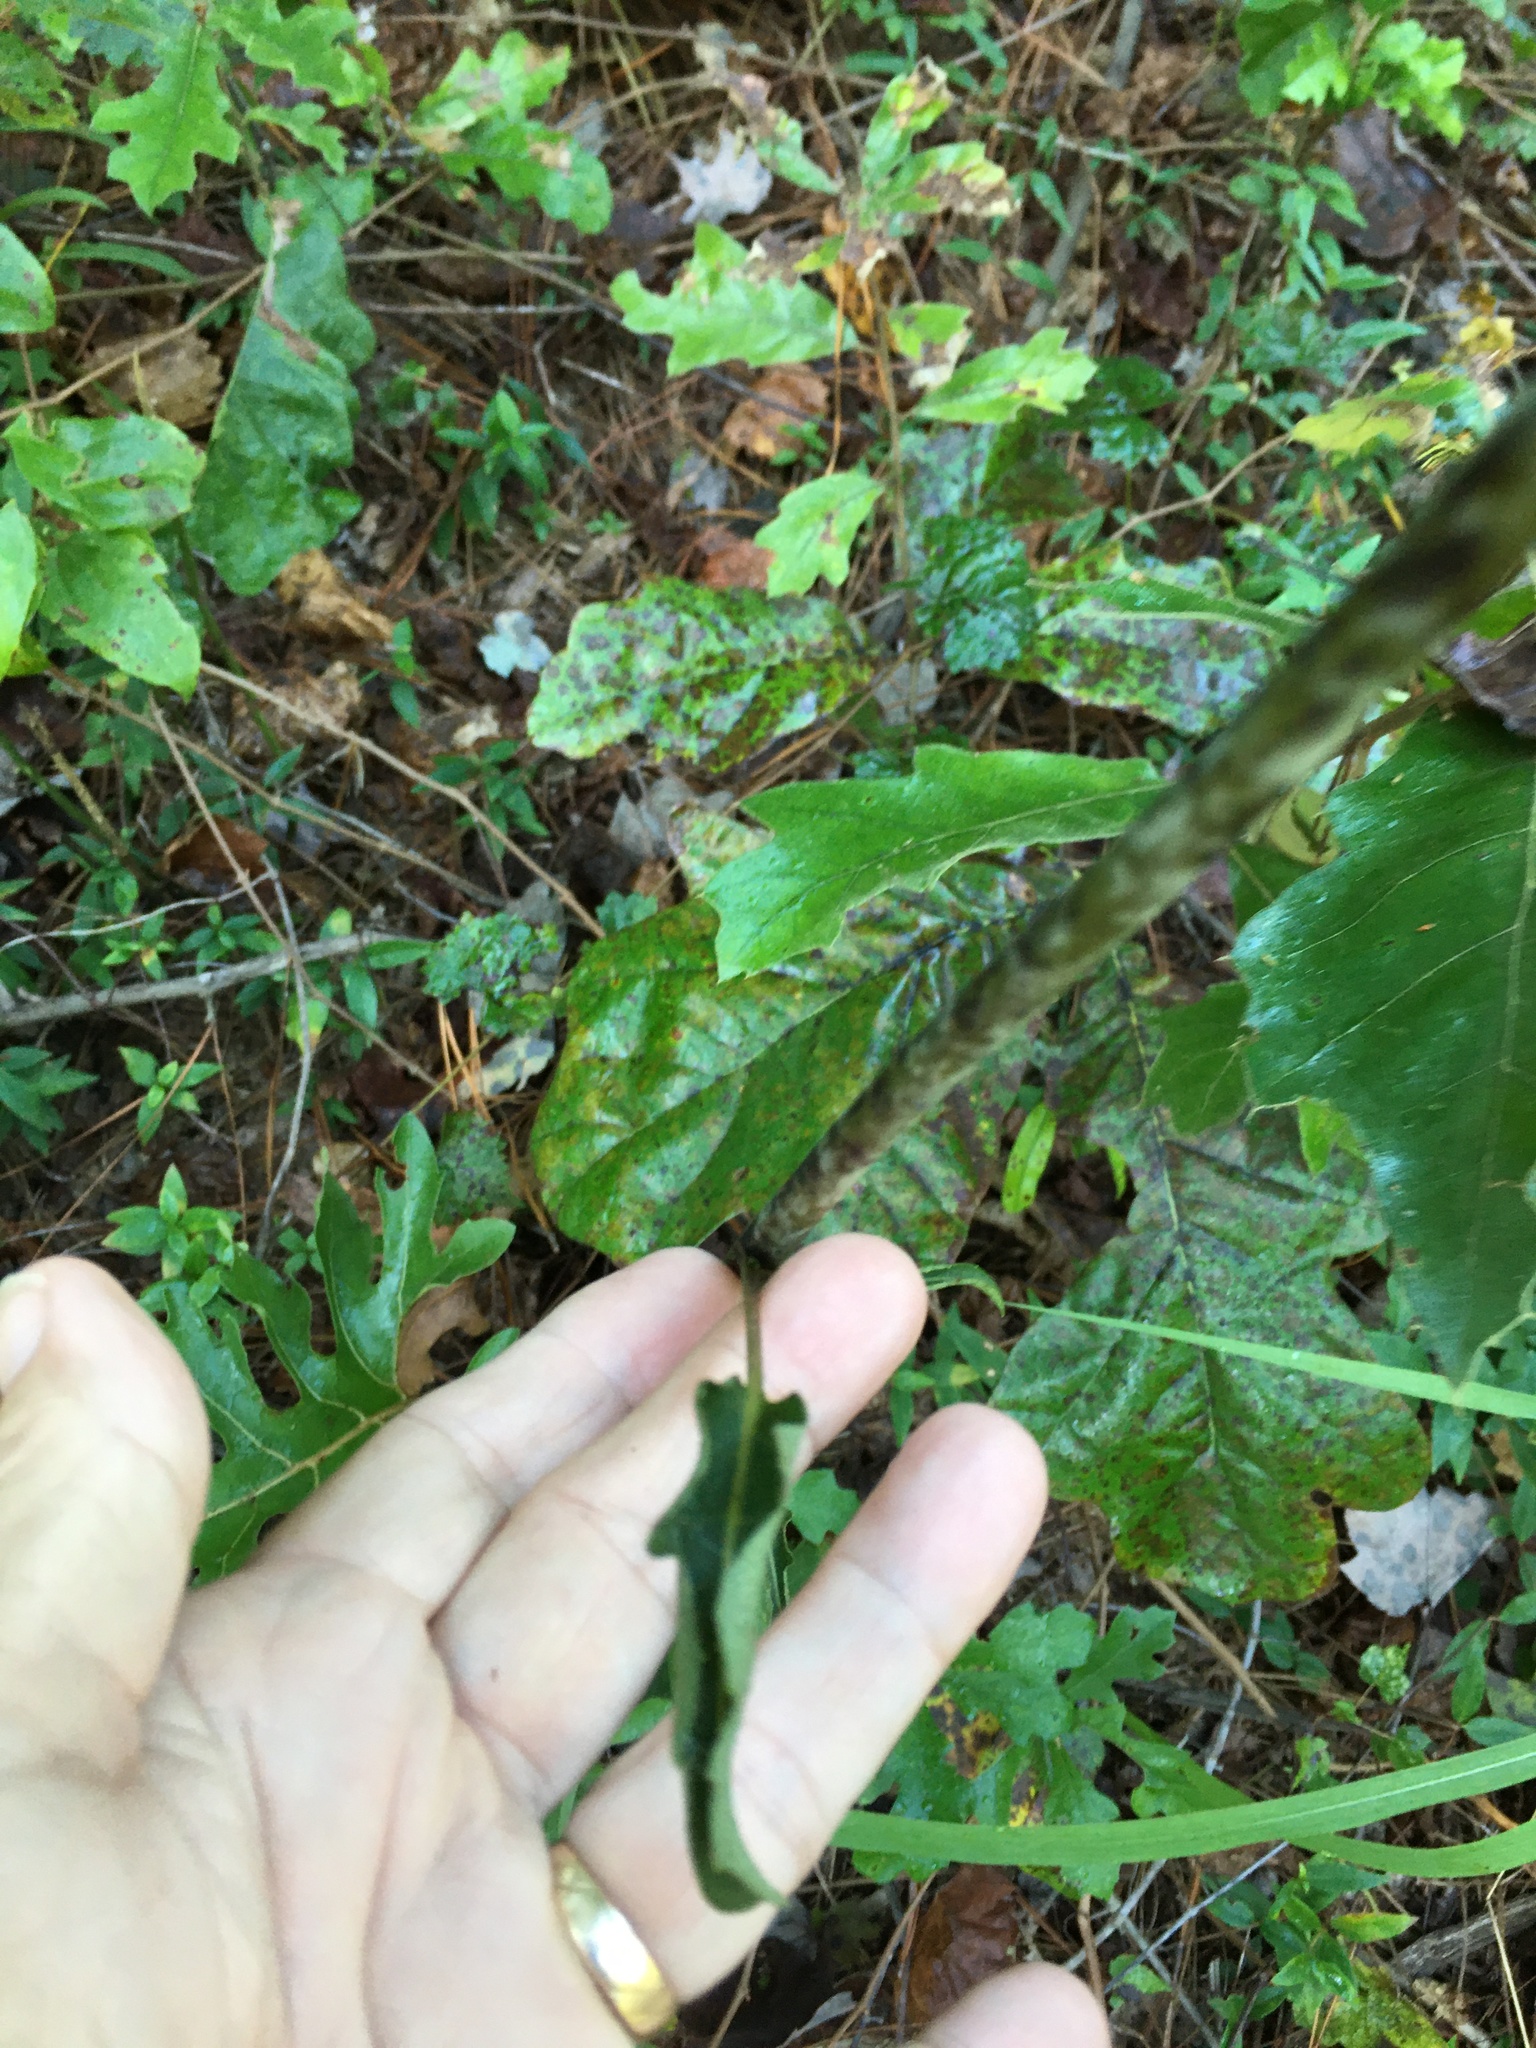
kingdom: Plantae
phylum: Tracheophyta
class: Magnoliopsida
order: Asterales
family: Asteraceae
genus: Silphium
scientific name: Silphium compositum
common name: Lesser basal-leaf rosinweed
